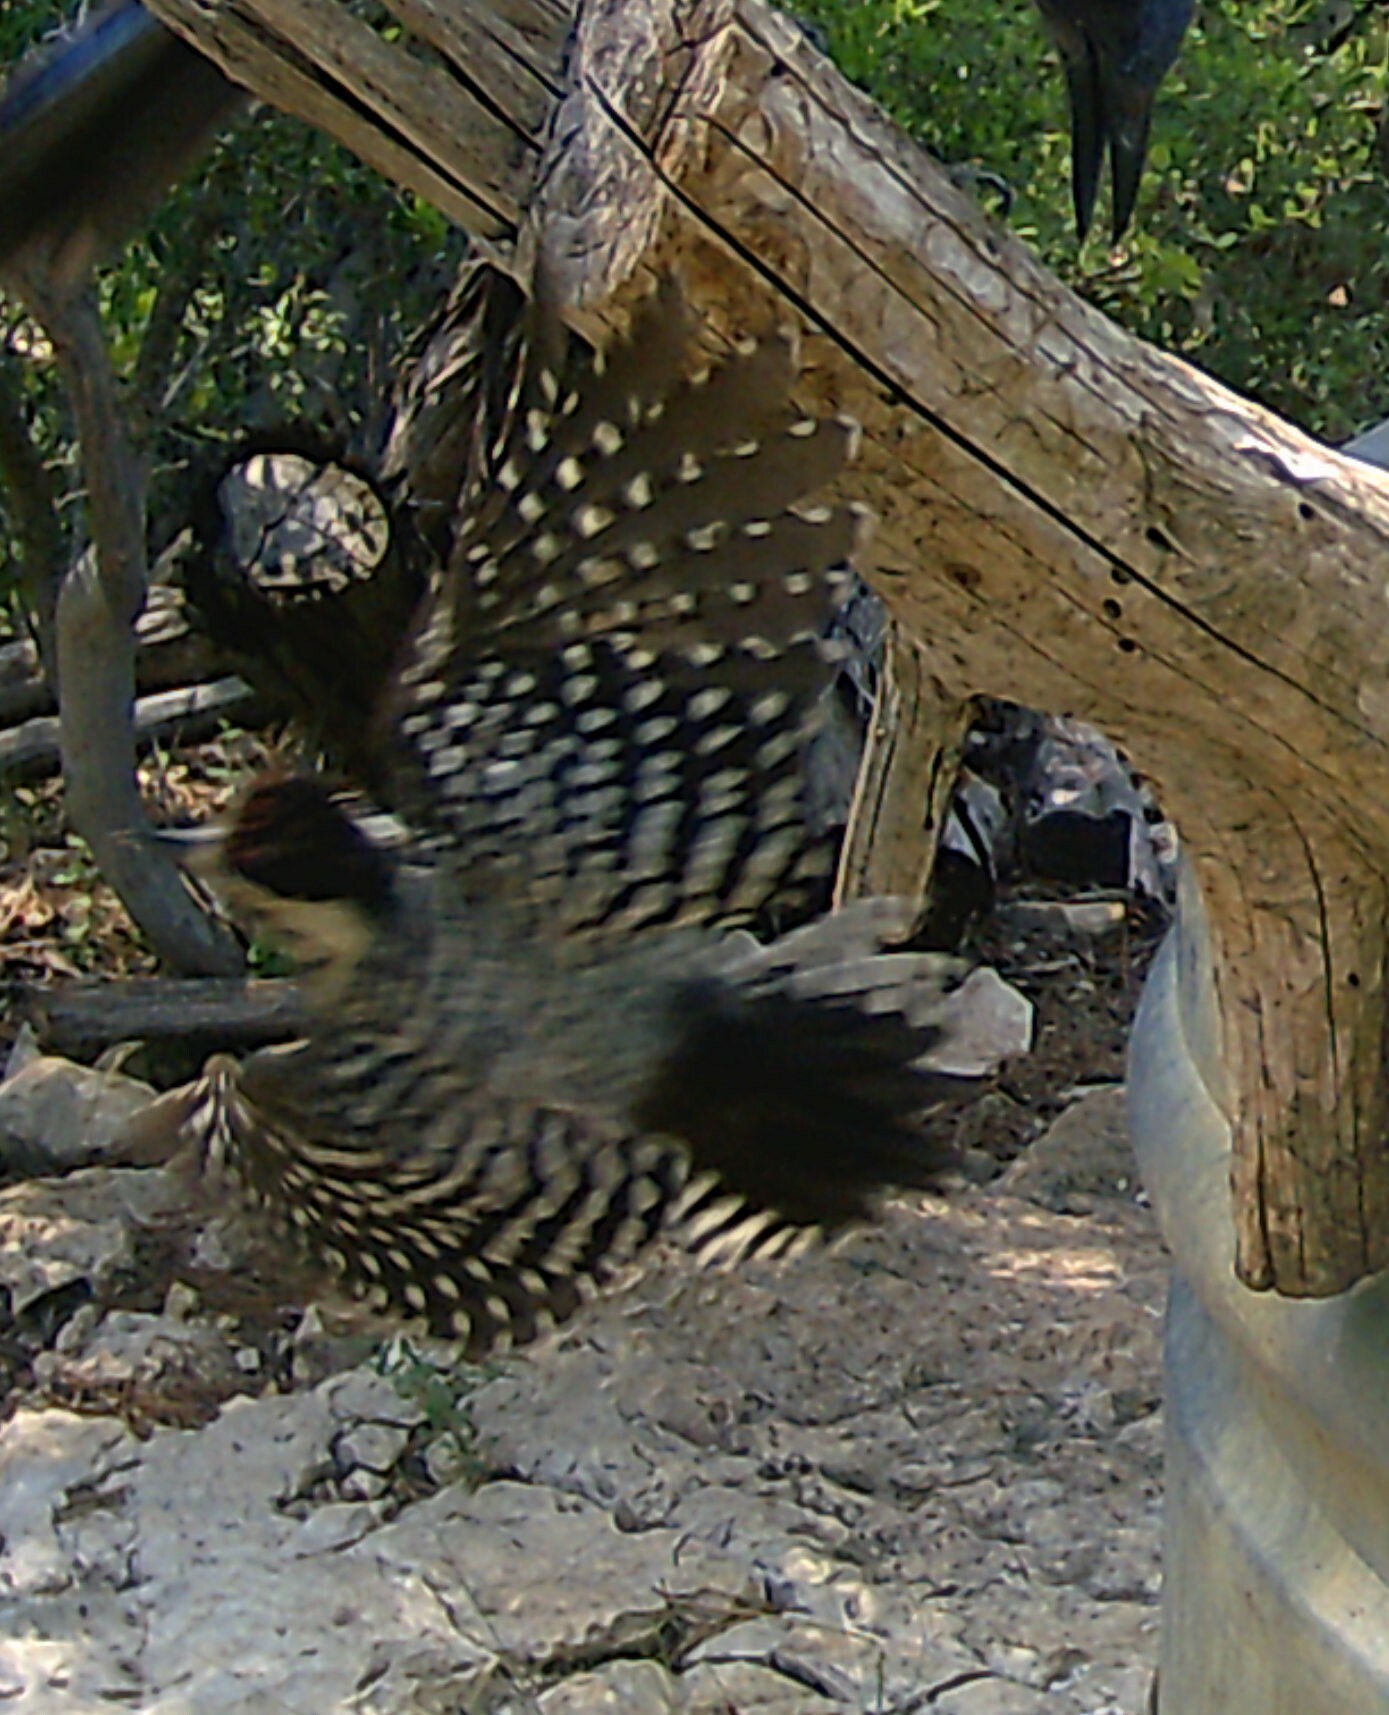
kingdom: Animalia
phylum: Chordata
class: Aves
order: Piciformes
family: Picidae
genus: Dryobates
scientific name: Dryobates scalaris
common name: Ladder-backed woodpecker
